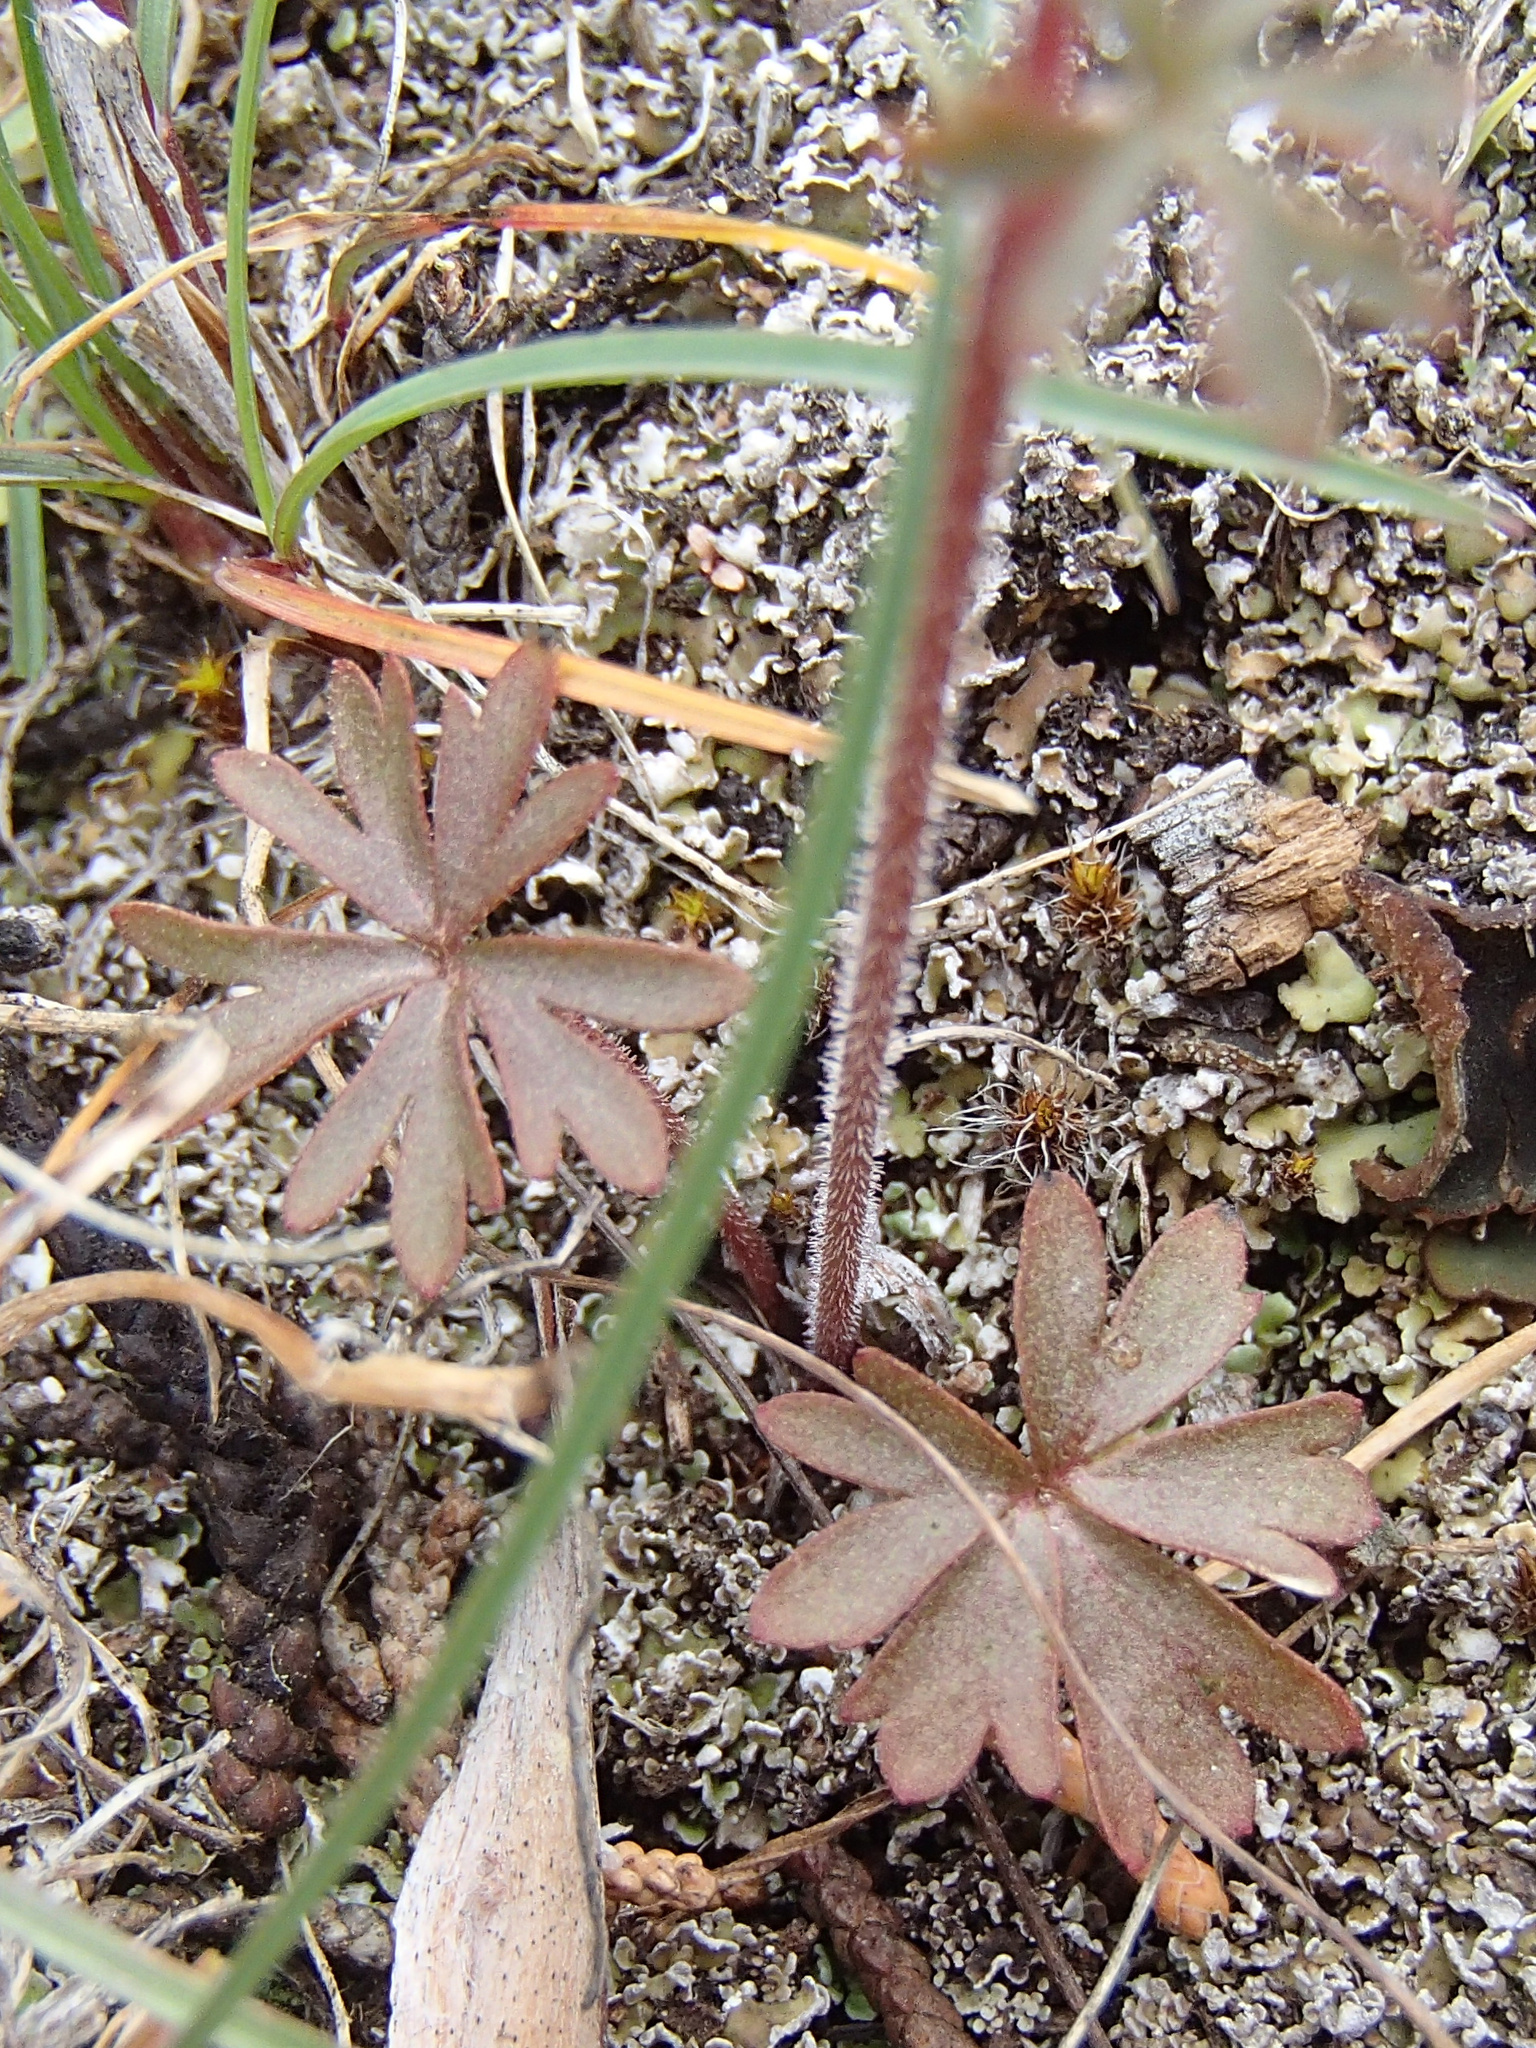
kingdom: Plantae
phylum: Tracheophyta
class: Magnoliopsida
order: Saxifragales
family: Saxifragaceae
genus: Lithophragma
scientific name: Lithophragma glabrum
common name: Bulbous prairie-star
